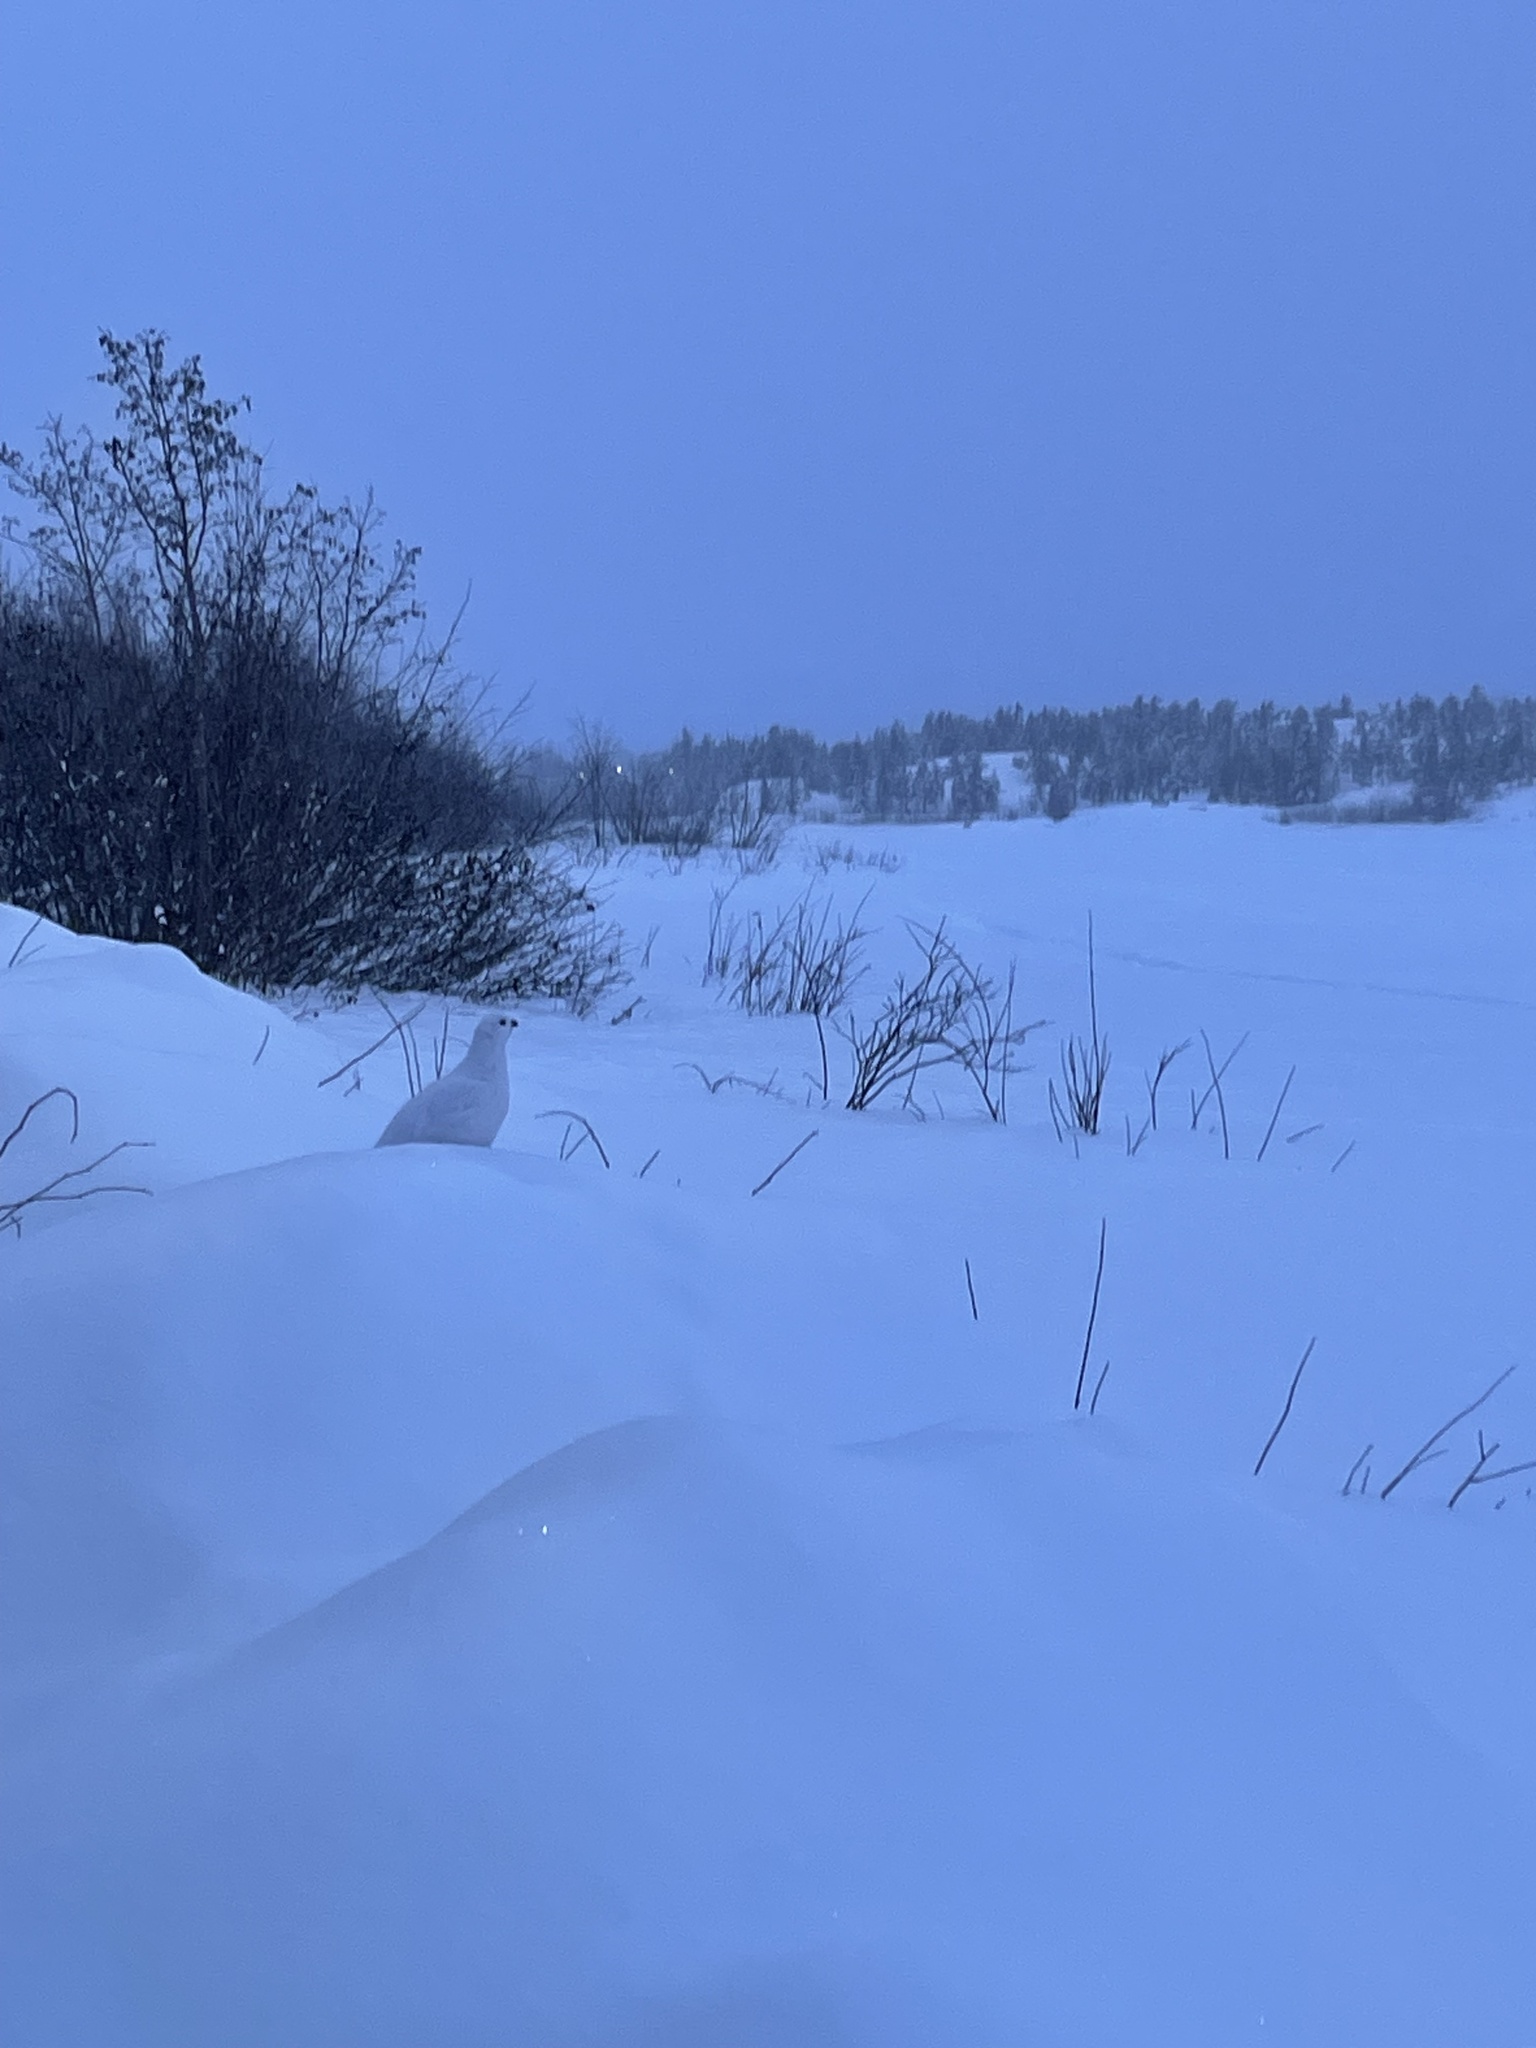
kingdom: Animalia
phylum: Chordata
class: Aves
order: Galliformes
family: Phasianidae
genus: Lagopus
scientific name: Lagopus lagopus
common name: Willow ptarmigan
